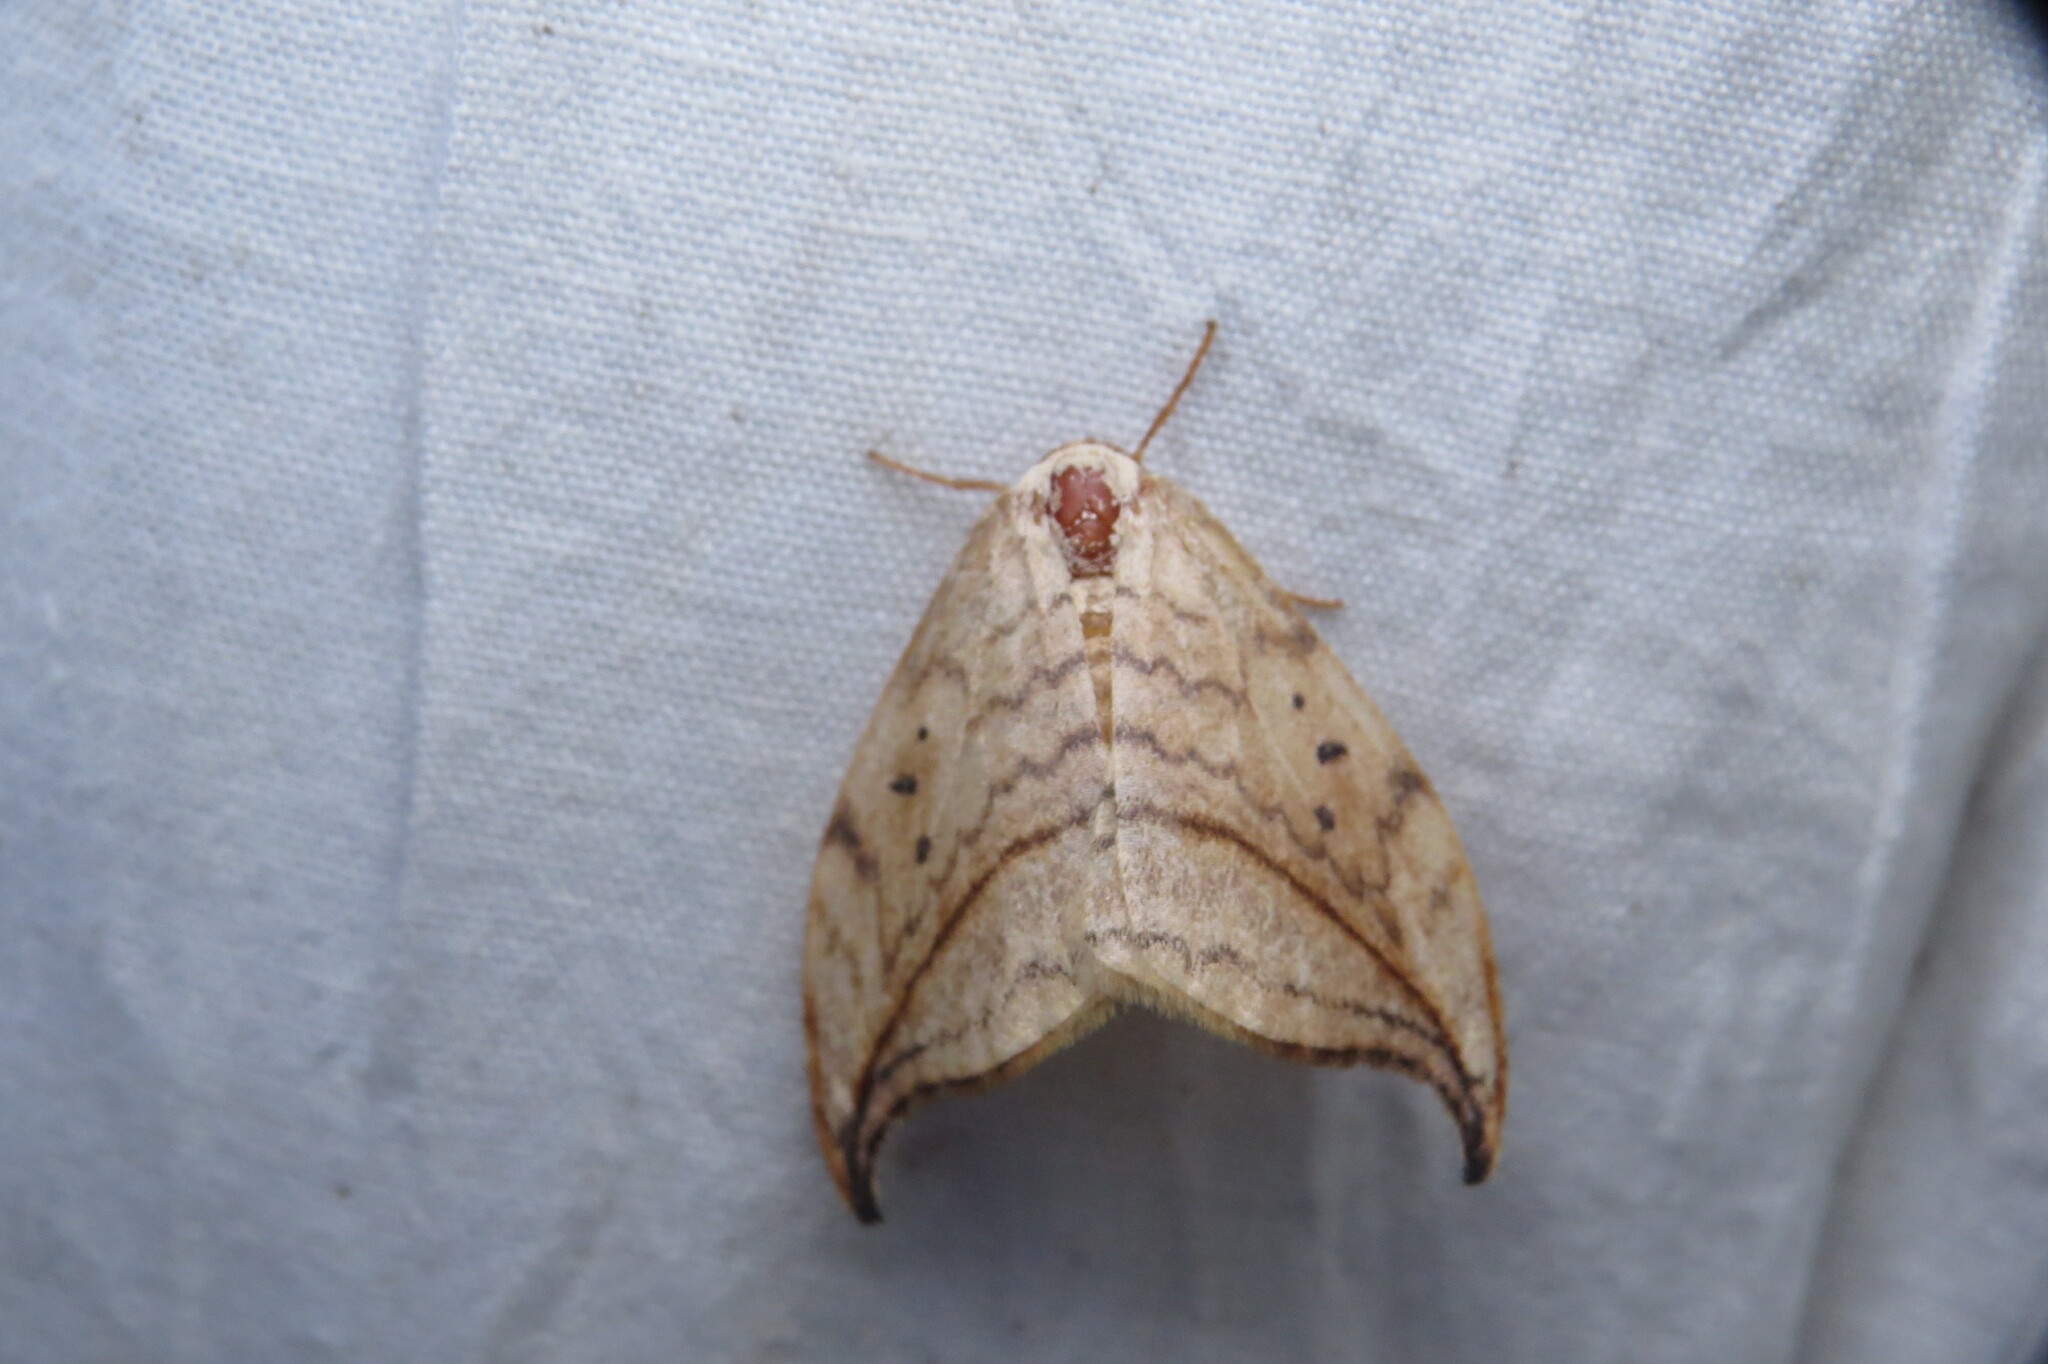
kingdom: Animalia
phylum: Arthropoda
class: Insecta
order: Lepidoptera
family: Drepanidae
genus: Drepana
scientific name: Drepana arcuata
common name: Arched hooktip moth
